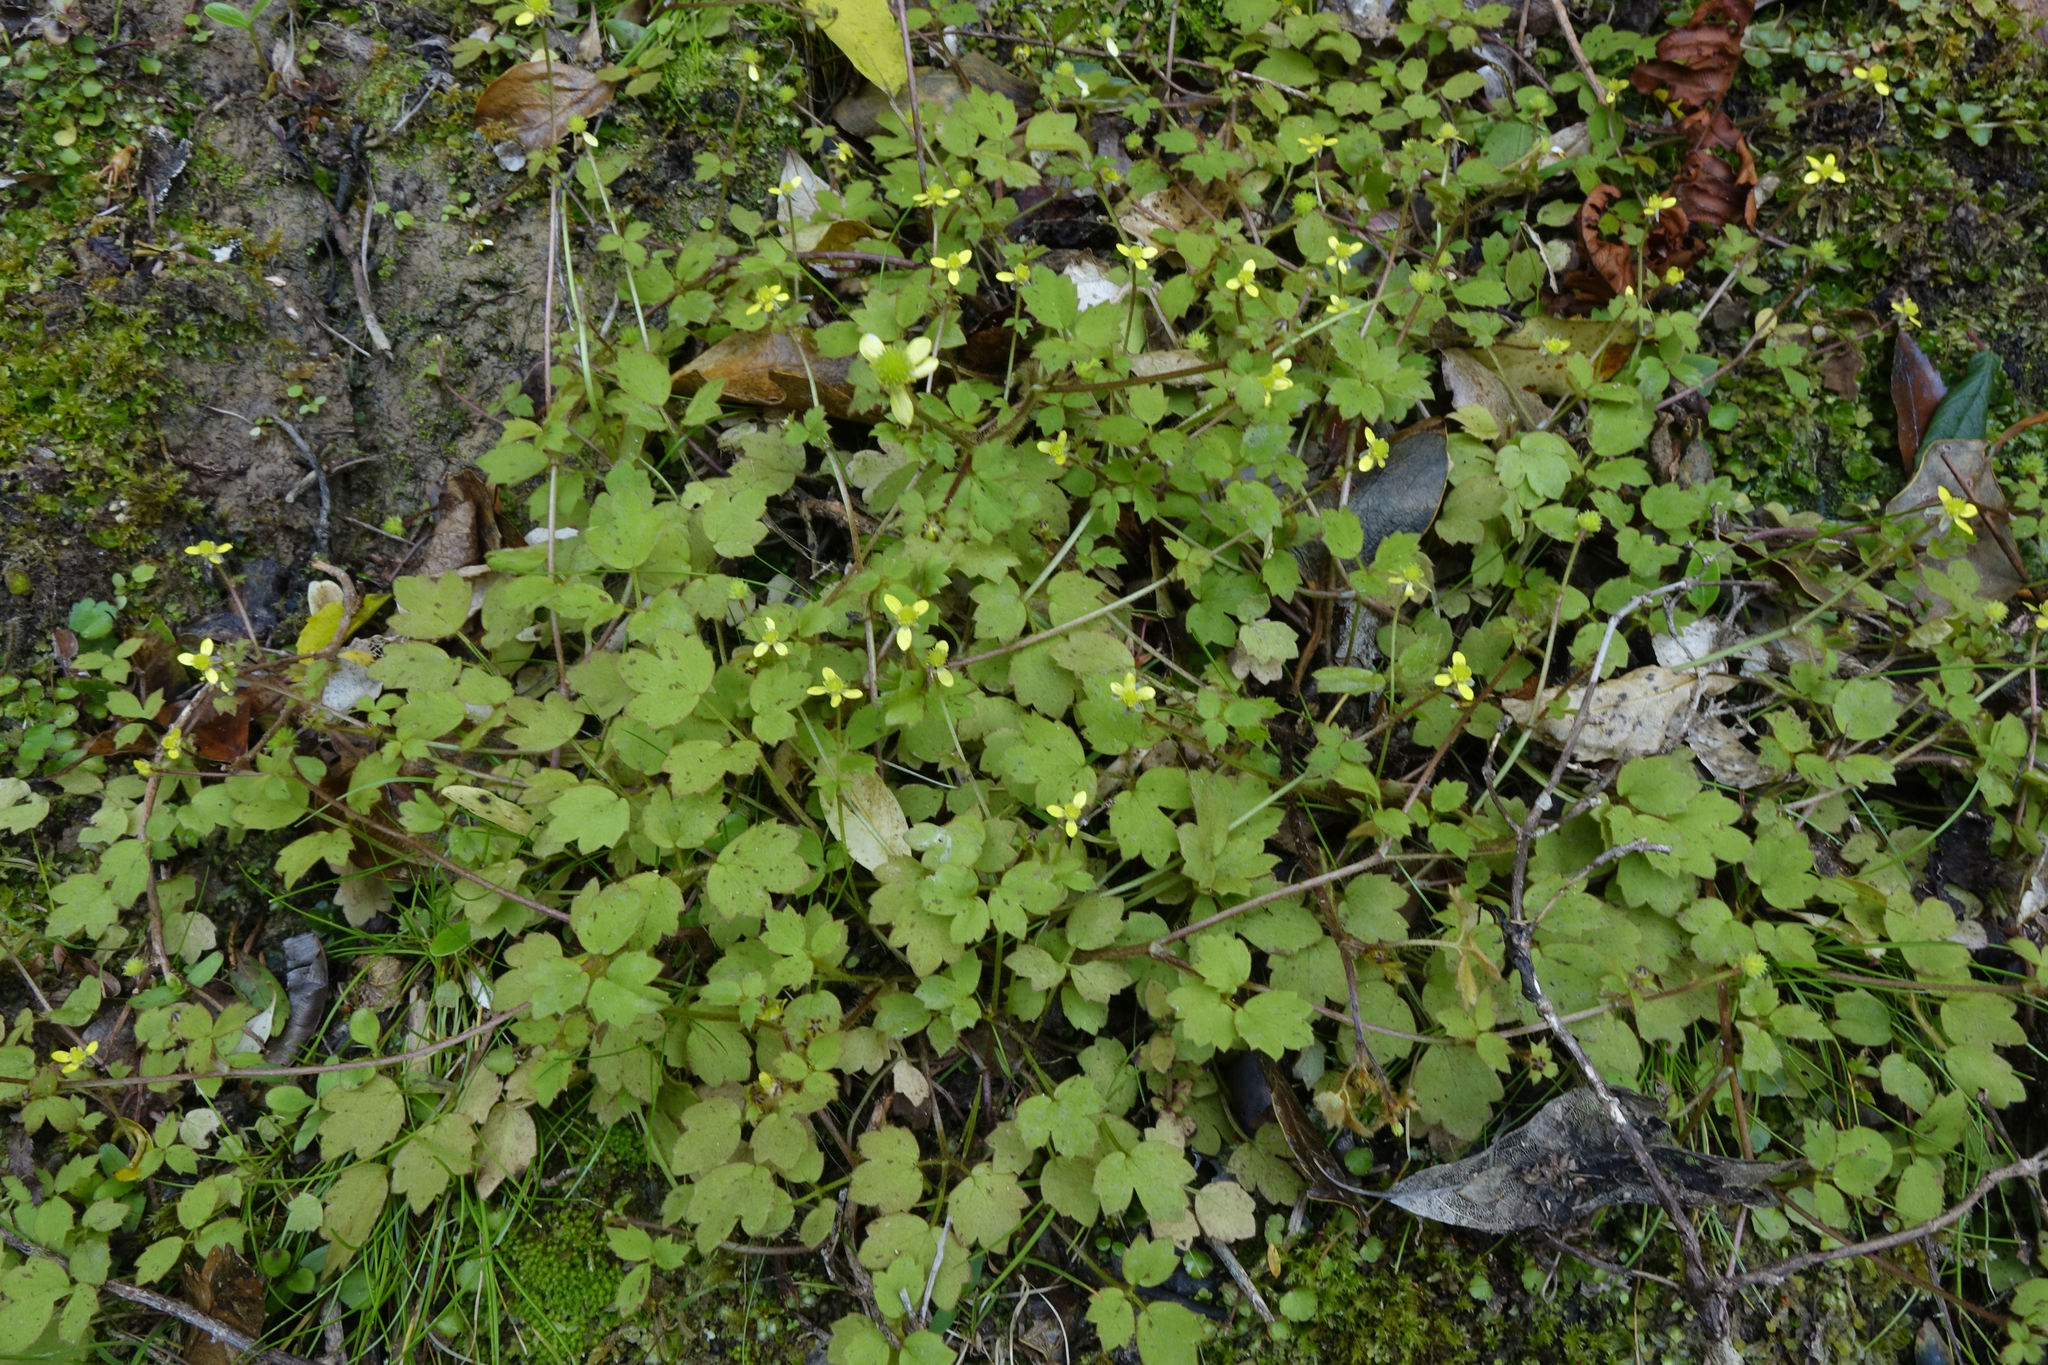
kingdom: Plantae
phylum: Tracheophyta
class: Magnoliopsida
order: Ranunculales
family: Ranunculaceae
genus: Ranunculus
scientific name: Ranunculus reflexus
